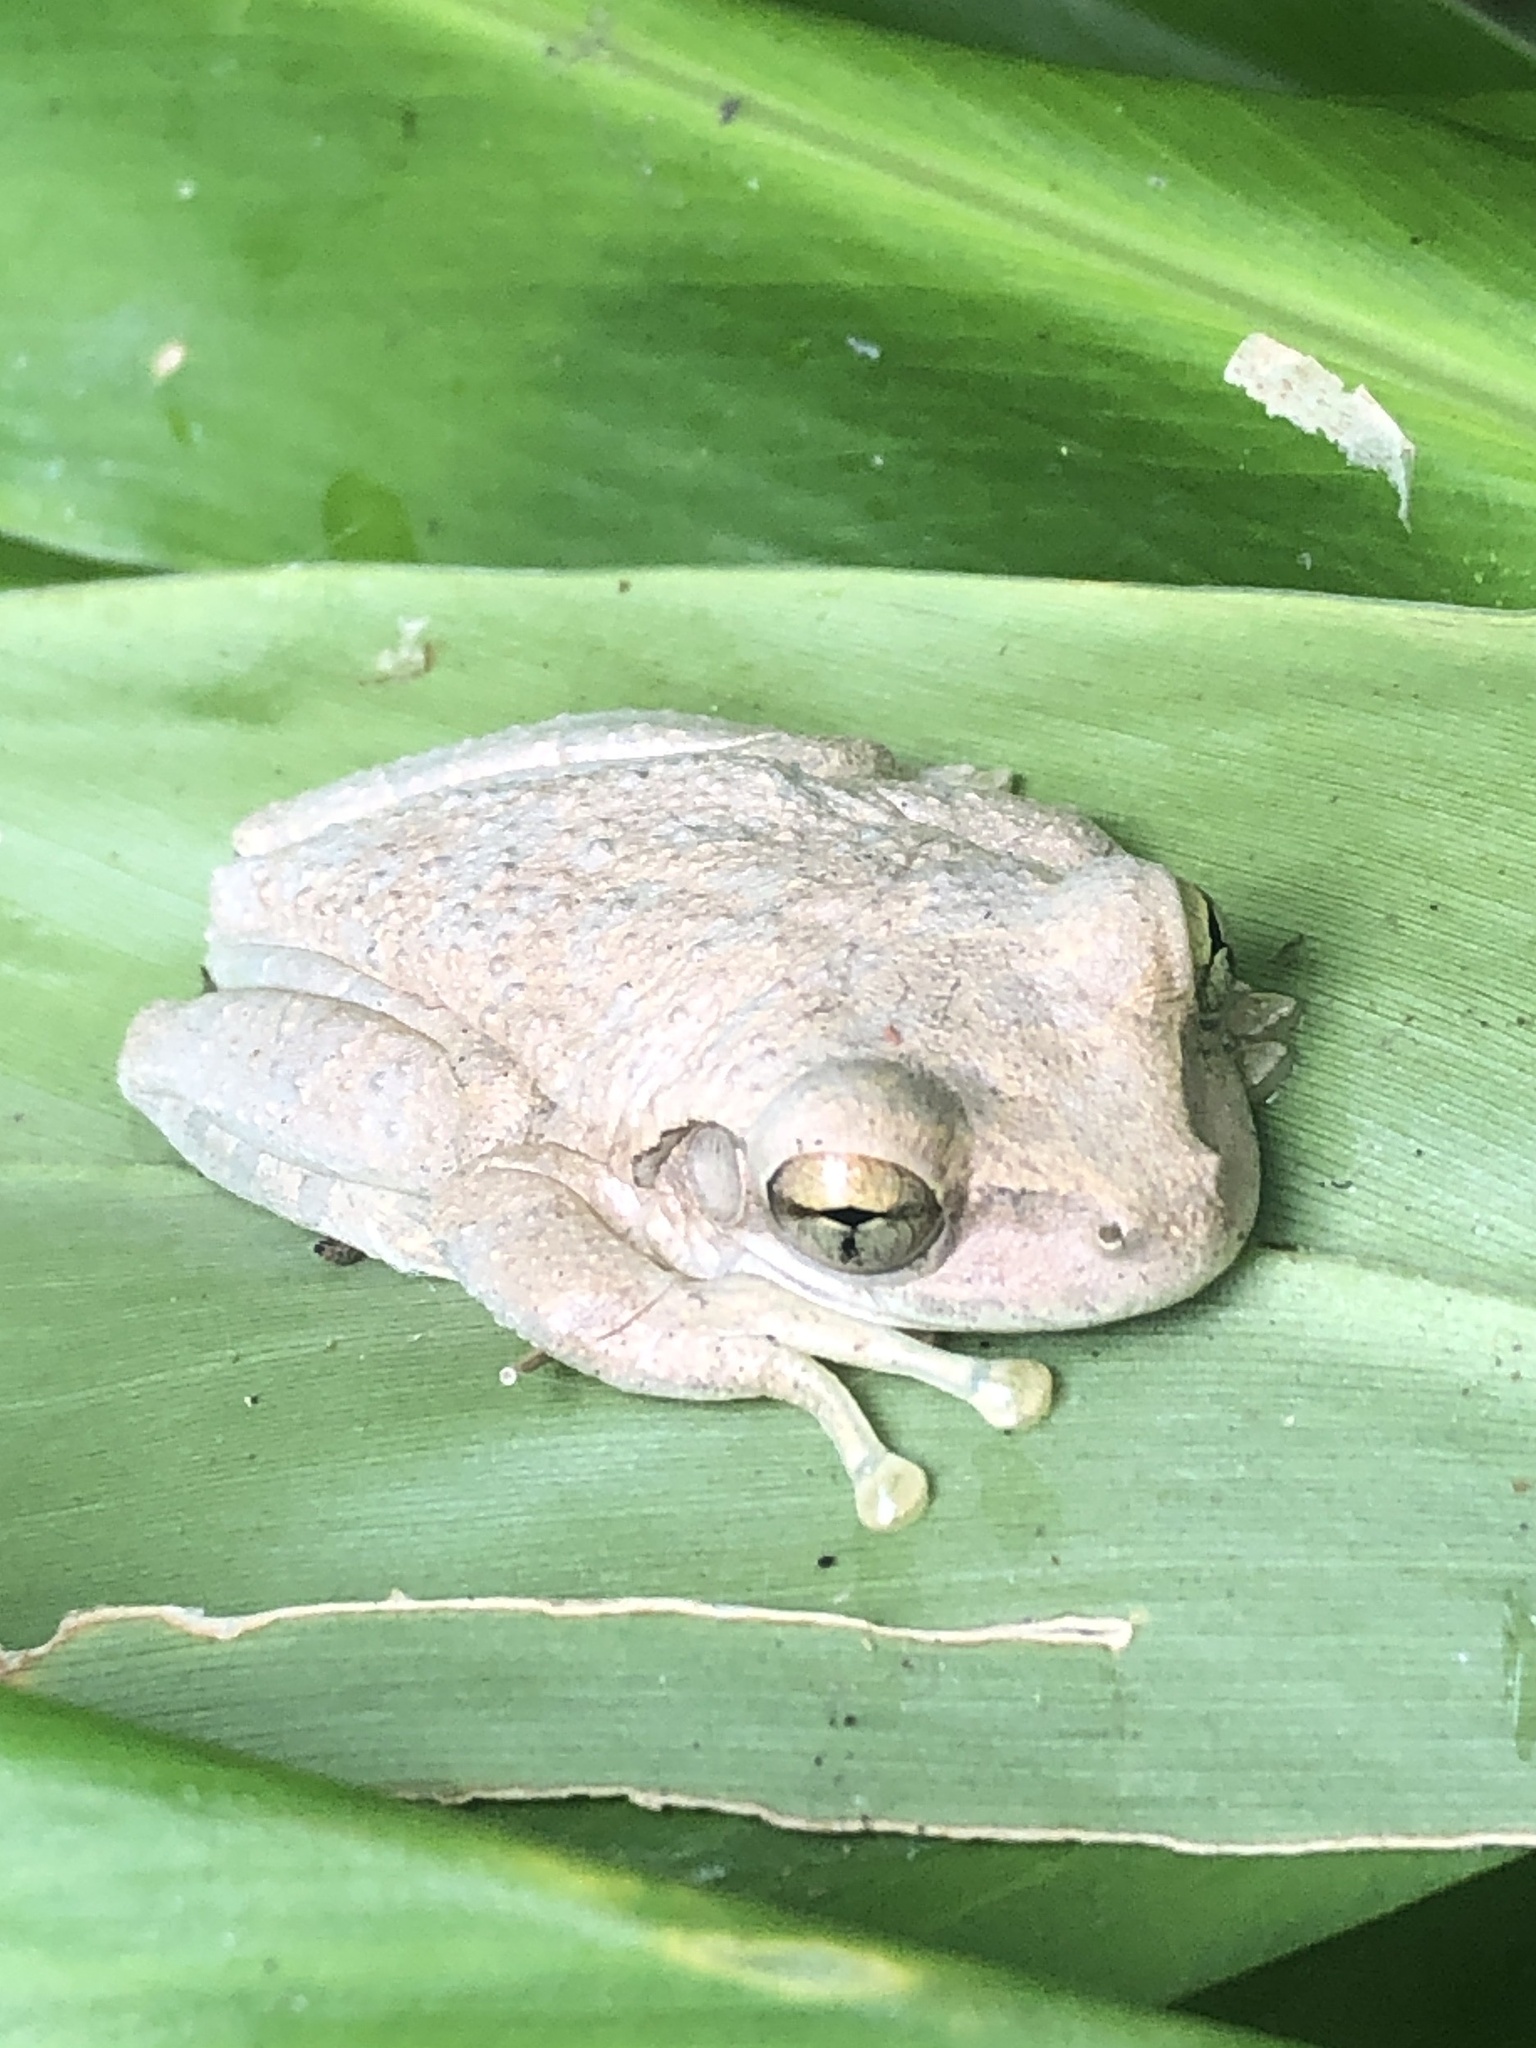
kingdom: Animalia
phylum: Chordata
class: Amphibia
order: Anura
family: Hylidae
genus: Osteopilus
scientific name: Osteopilus septentrionalis
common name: Cuban treefrog
